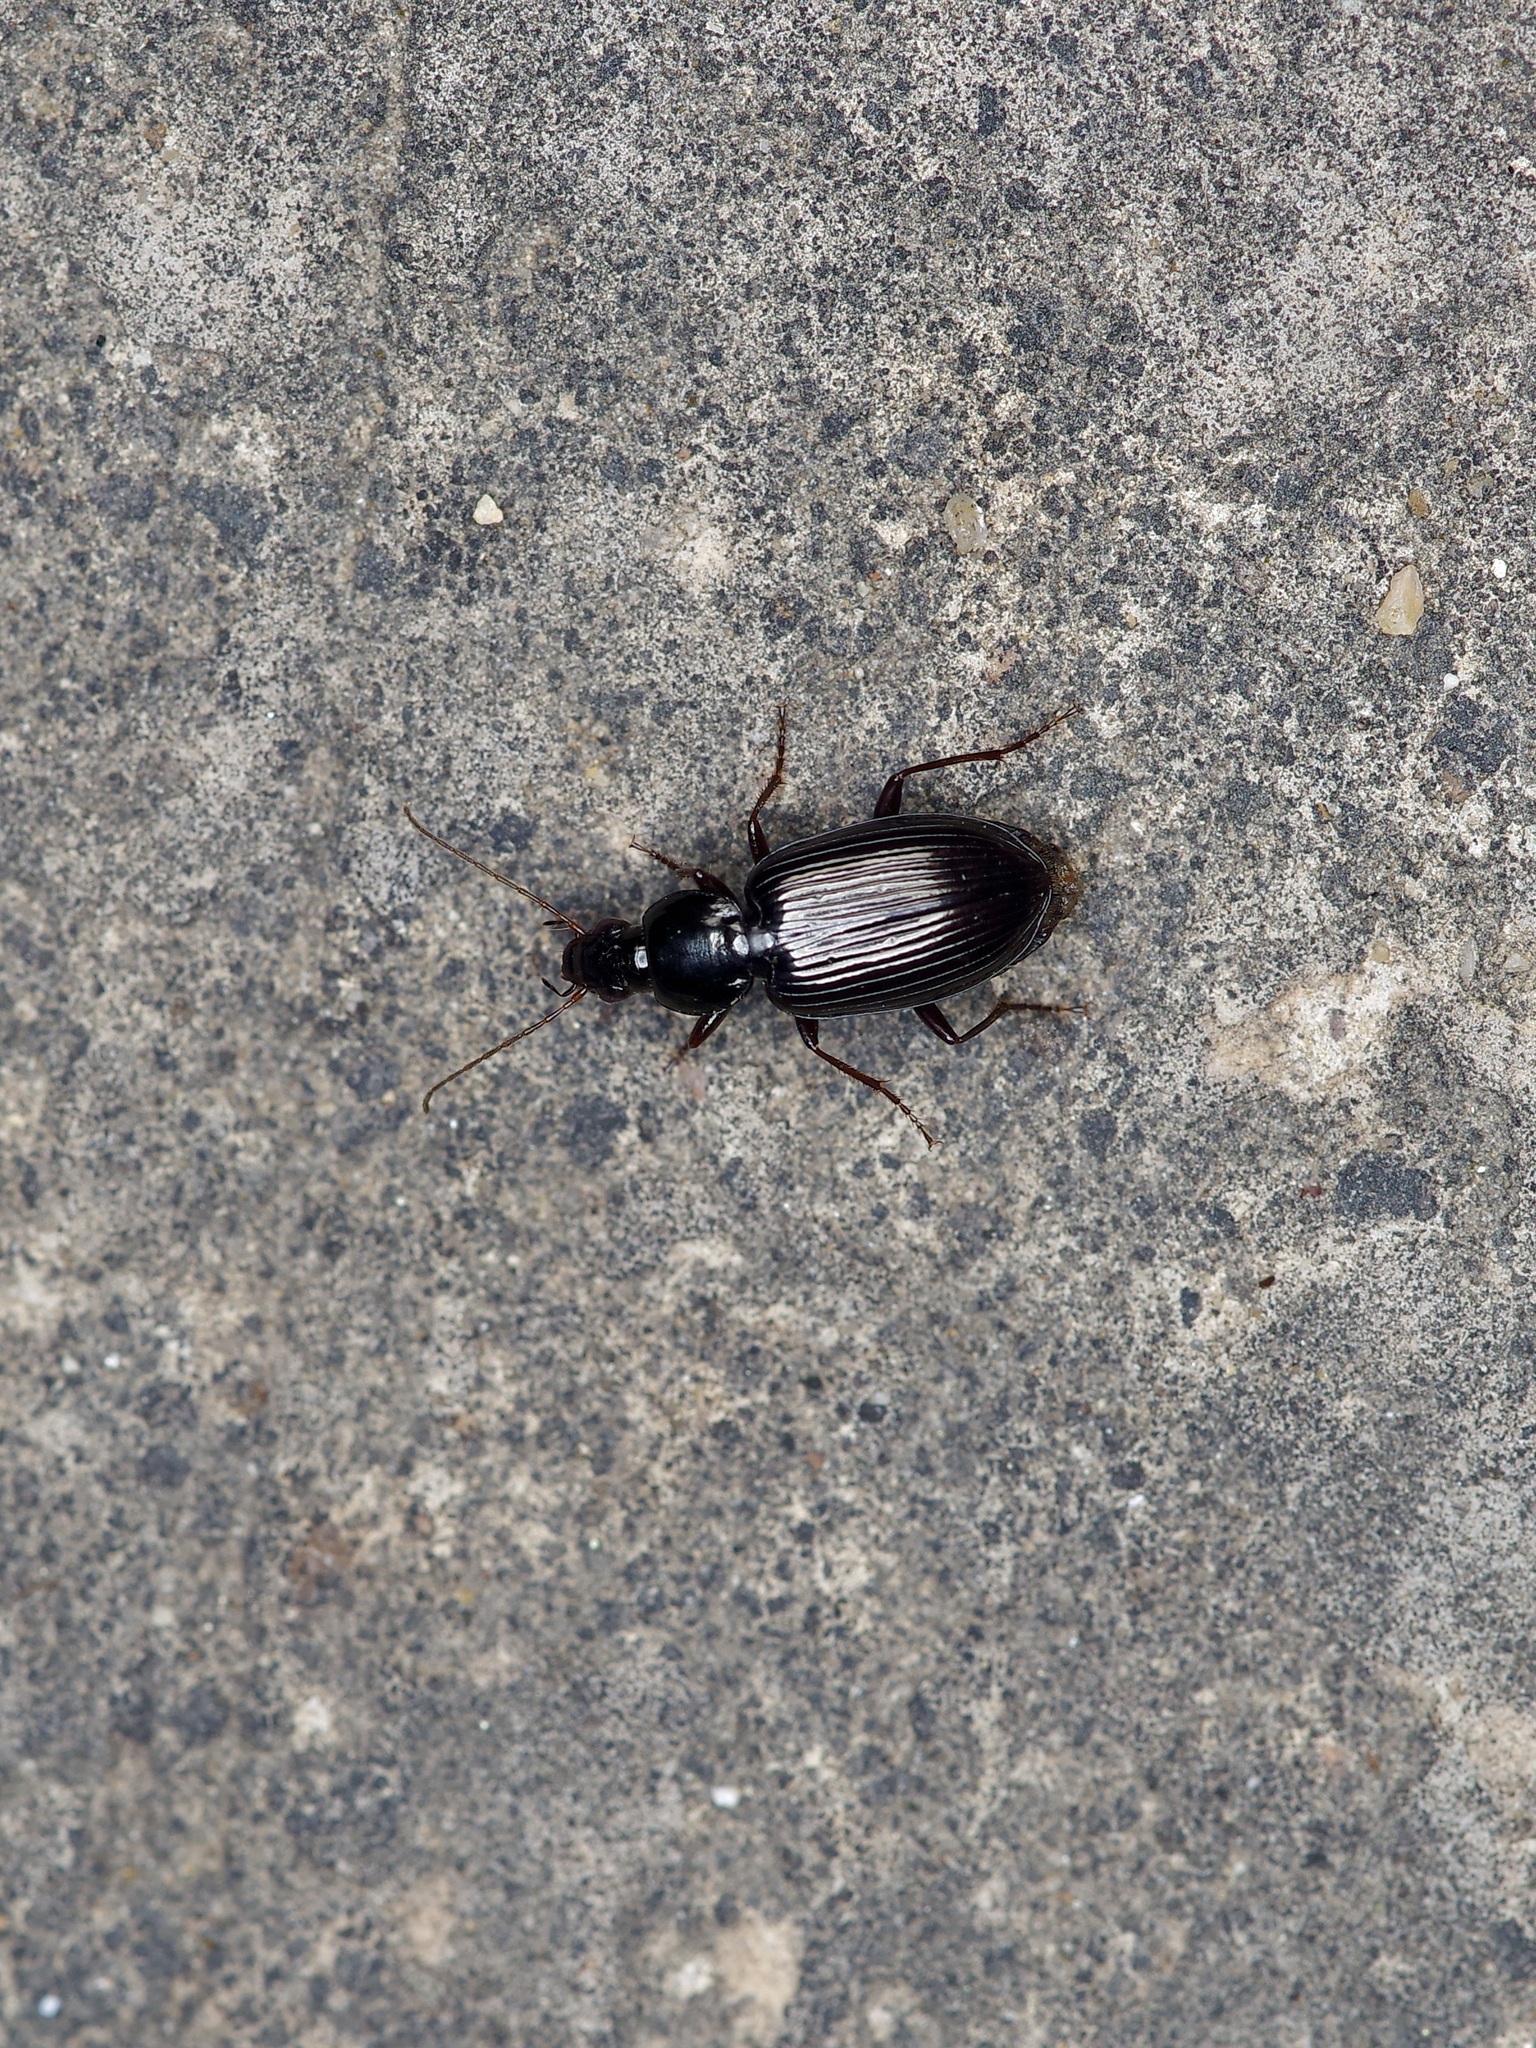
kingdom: Animalia
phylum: Arthropoda
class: Insecta
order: Coleoptera
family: Carabidae
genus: Agonum
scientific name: Agonum punctiforme
